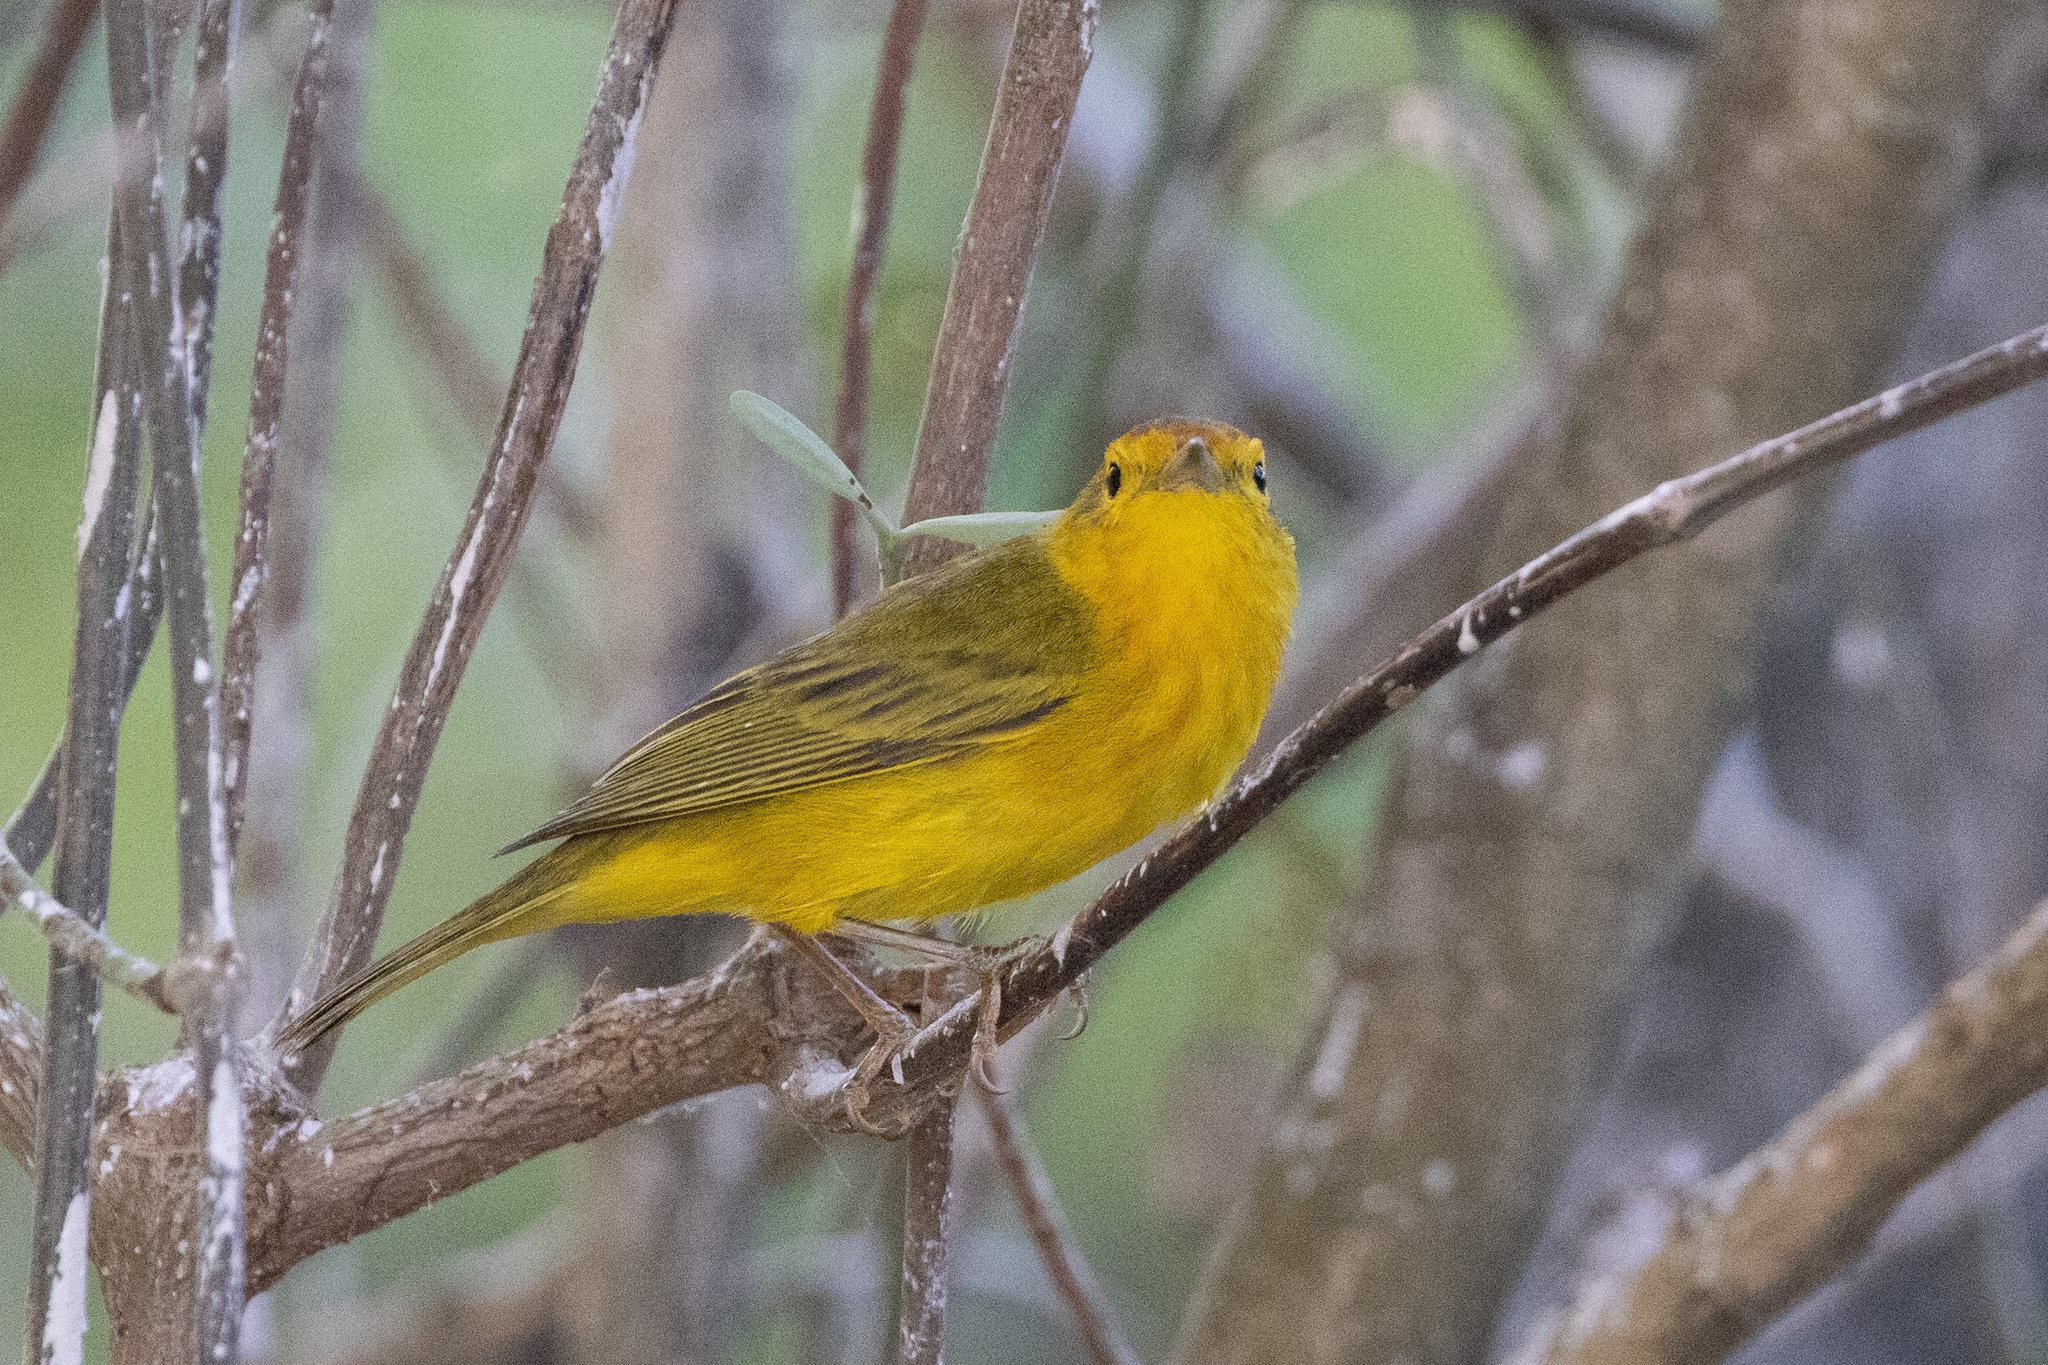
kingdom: Animalia
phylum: Chordata
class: Aves
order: Passeriformes
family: Parulidae
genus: Setophaga
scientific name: Setophaga petechia
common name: Yellow warbler
